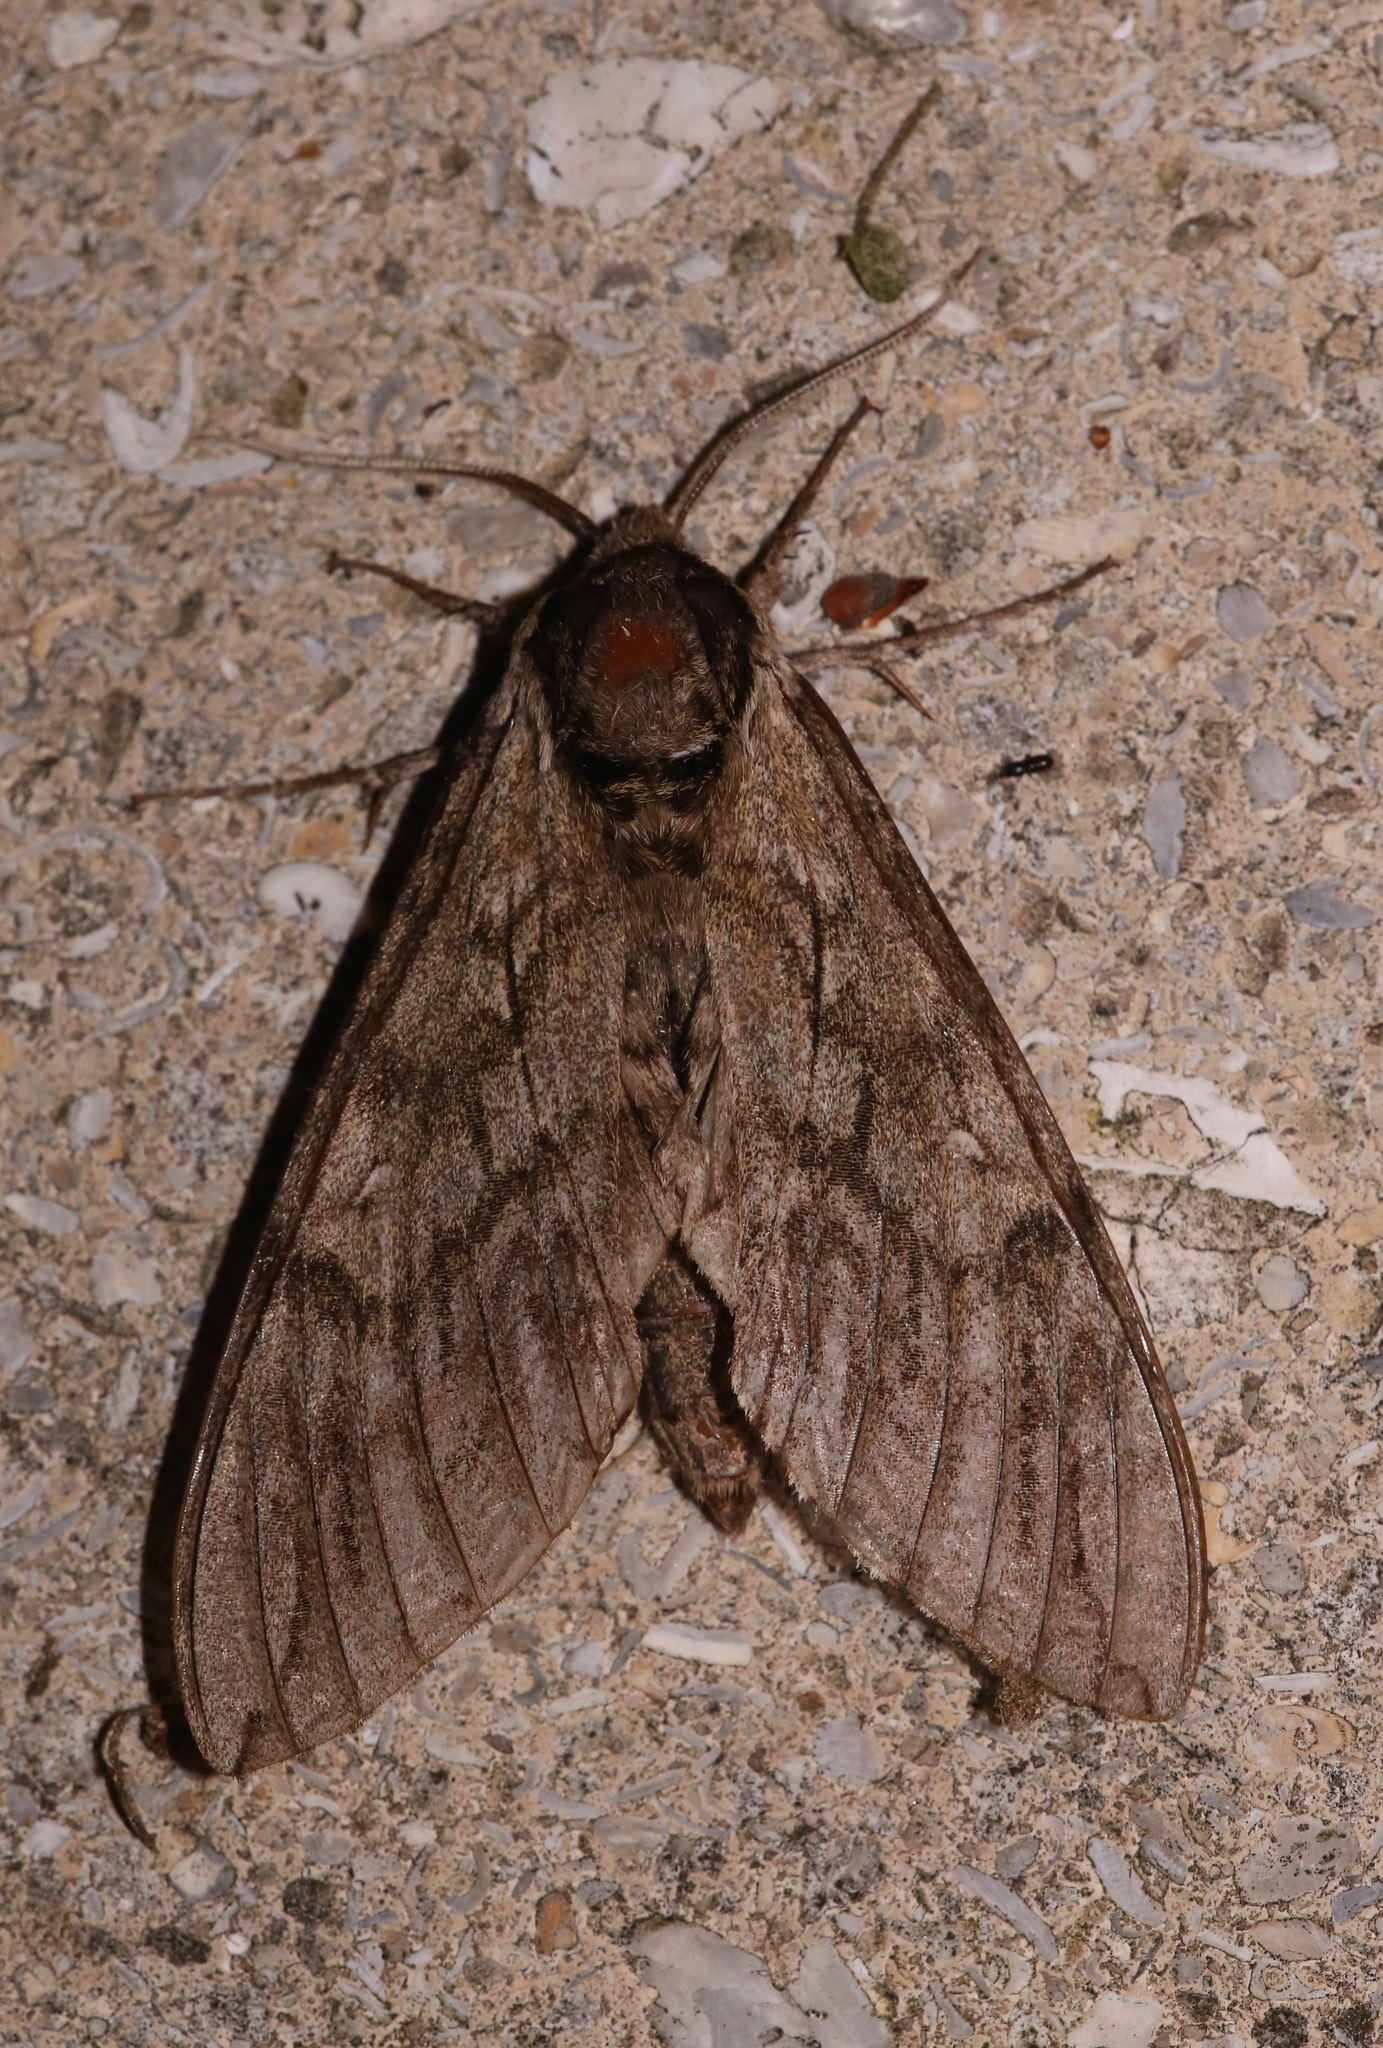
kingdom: Animalia
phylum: Arthropoda
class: Insecta
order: Lepidoptera
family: Sphingidae
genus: Ceratomia
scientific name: Ceratomia undulosa
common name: Waved sphinx
